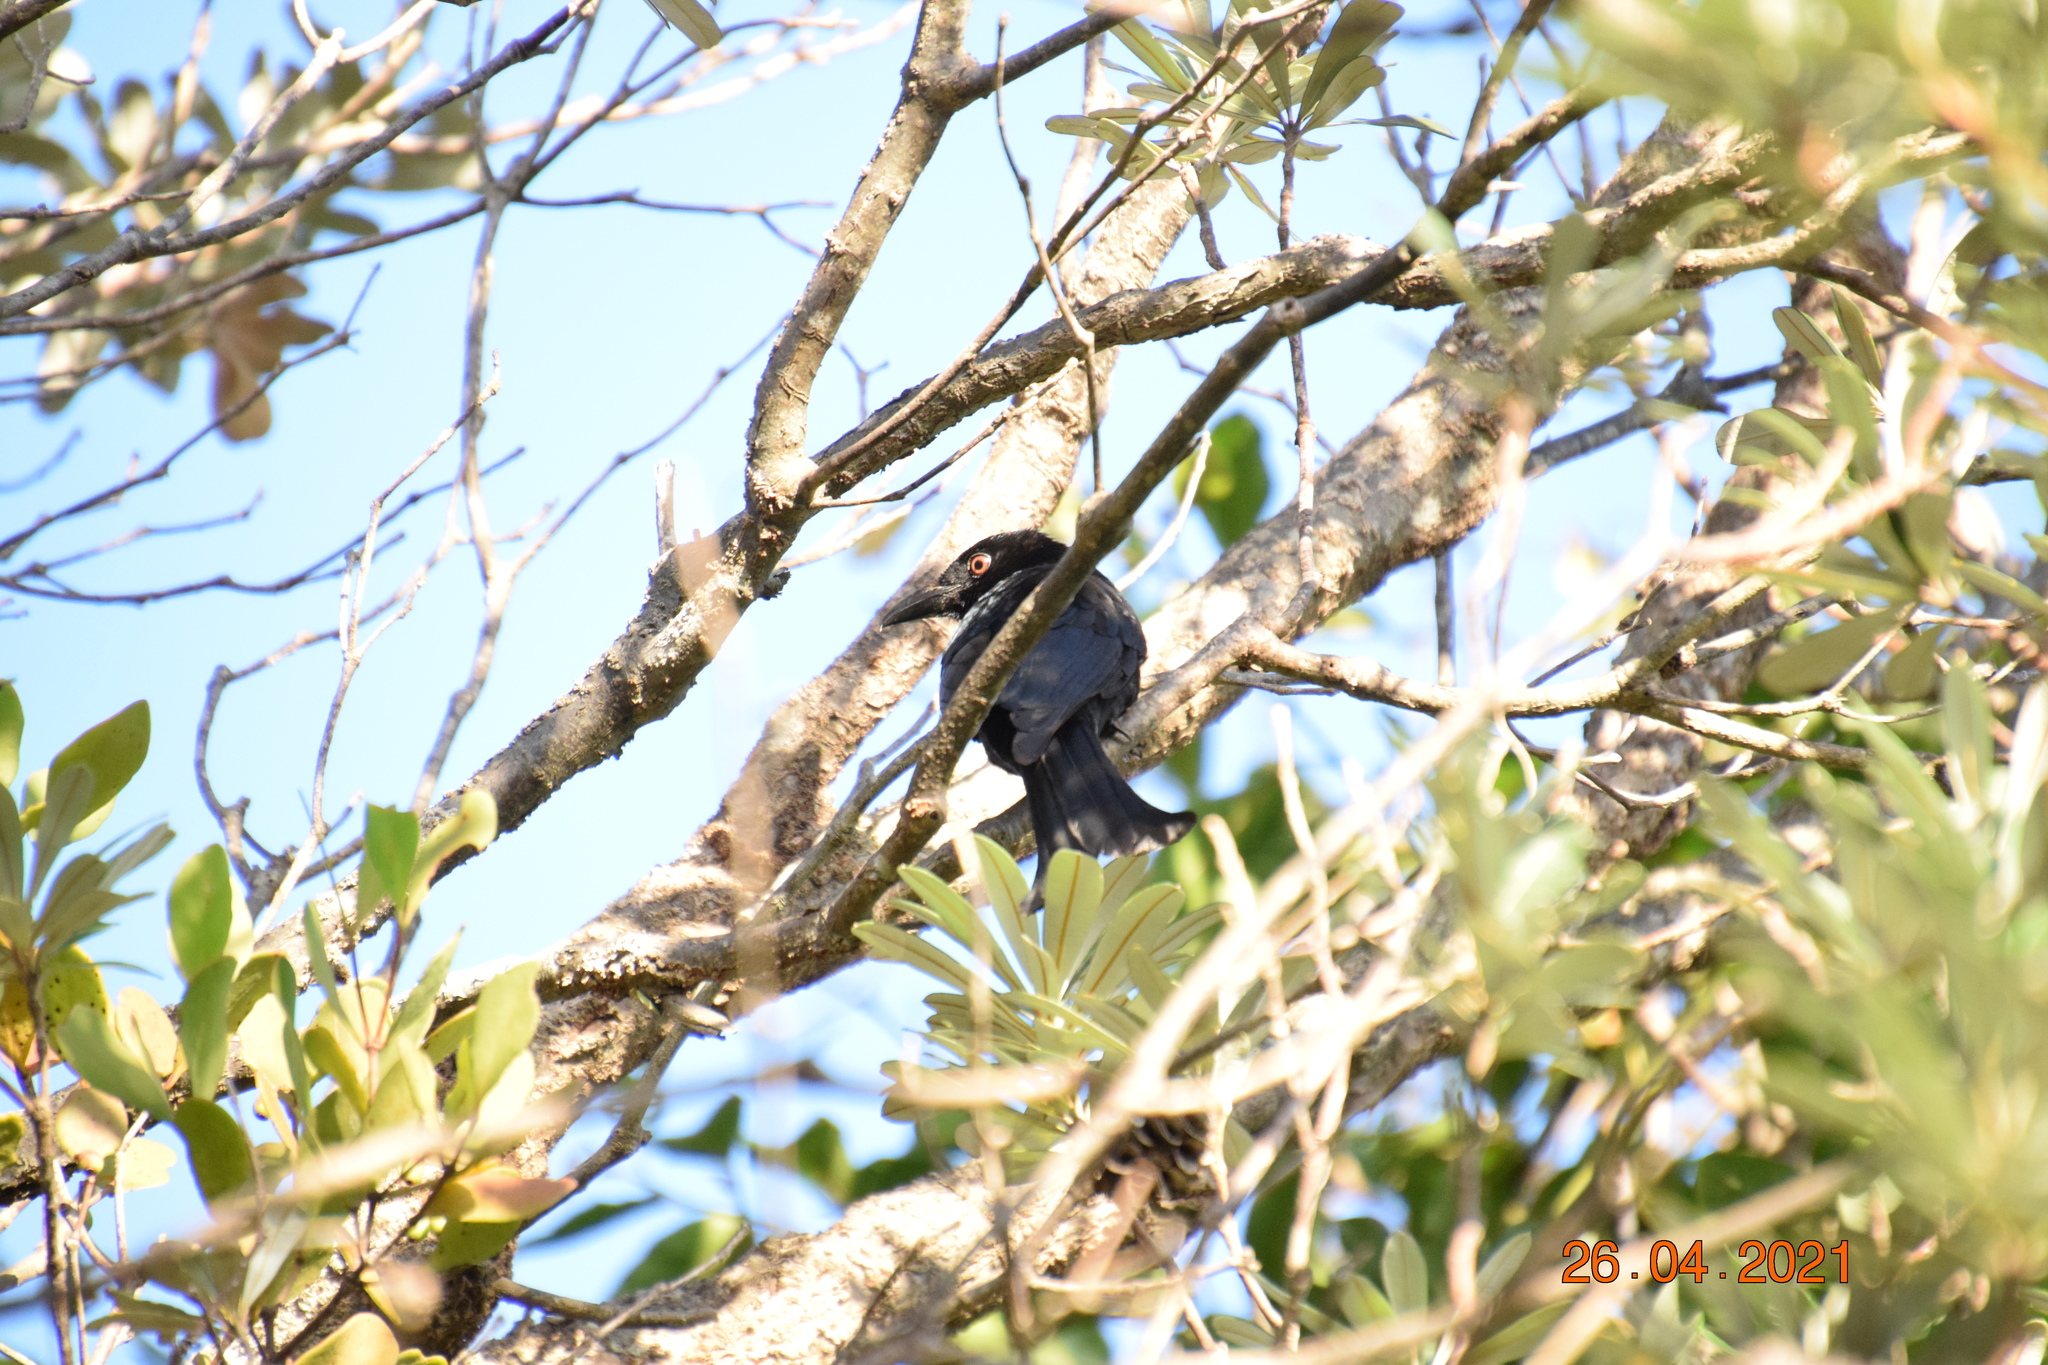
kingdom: Animalia
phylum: Chordata
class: Aves
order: Passeriformes
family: Dicruridae
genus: Dicrurus
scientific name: Dicrurus bracteatus
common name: Spangled drongo
